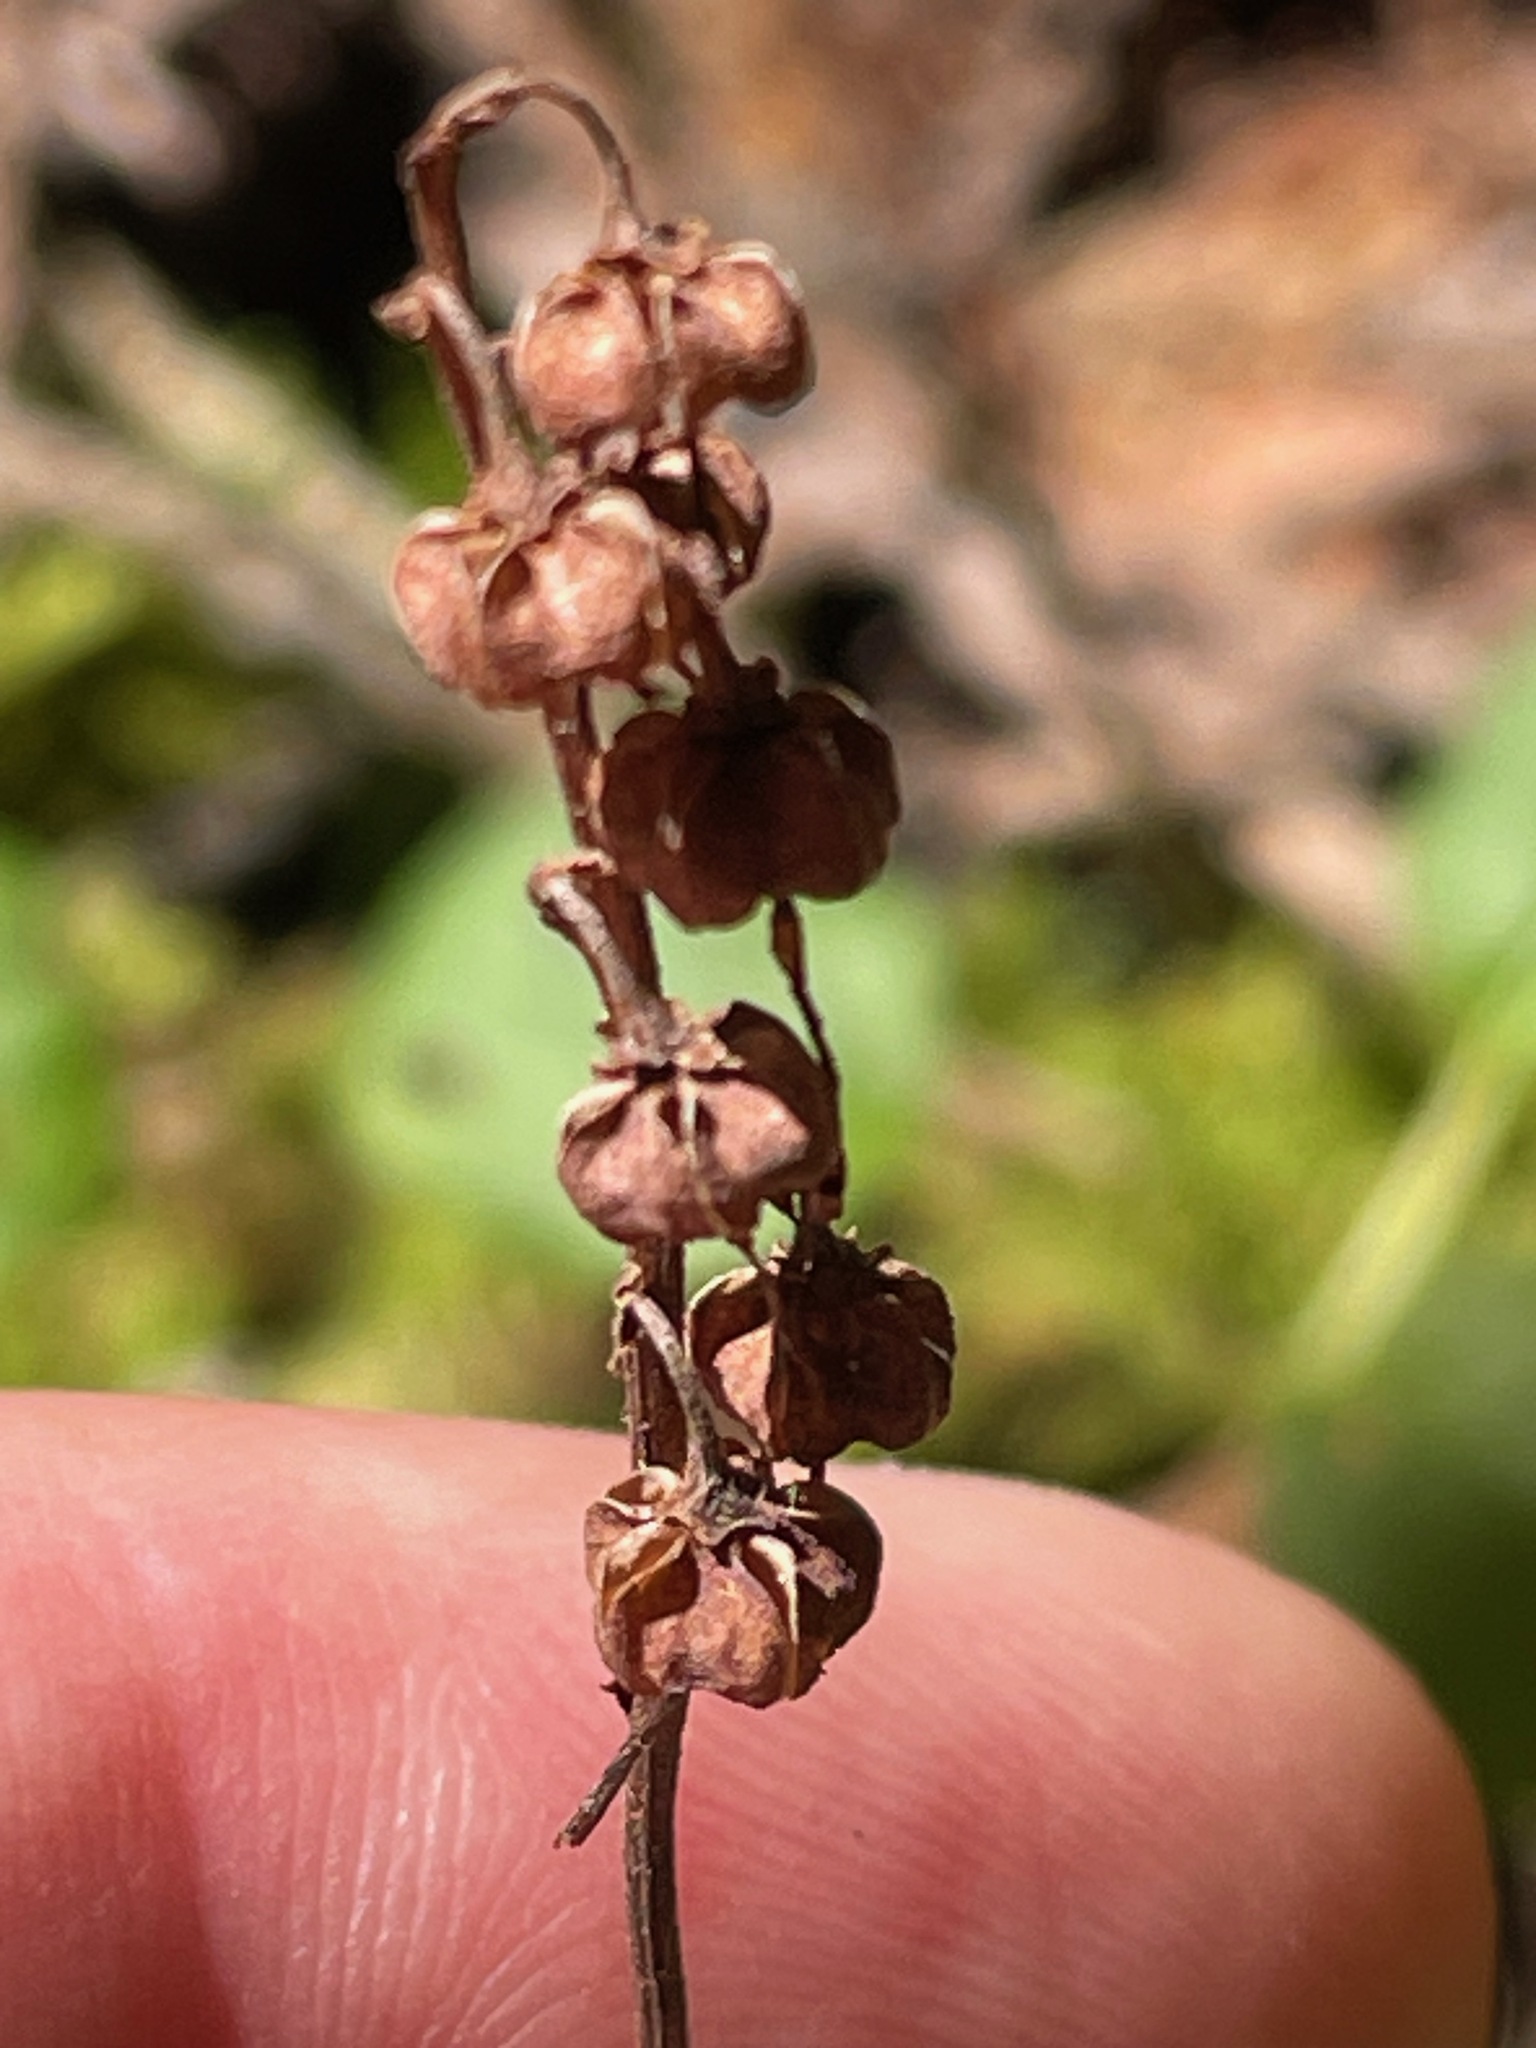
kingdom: Plantae
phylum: Tracheophyta
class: Magnoliopsida
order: Ericales
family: Ericaceae
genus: Orthilia
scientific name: Orthilia secunda
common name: One-sided orthilia
